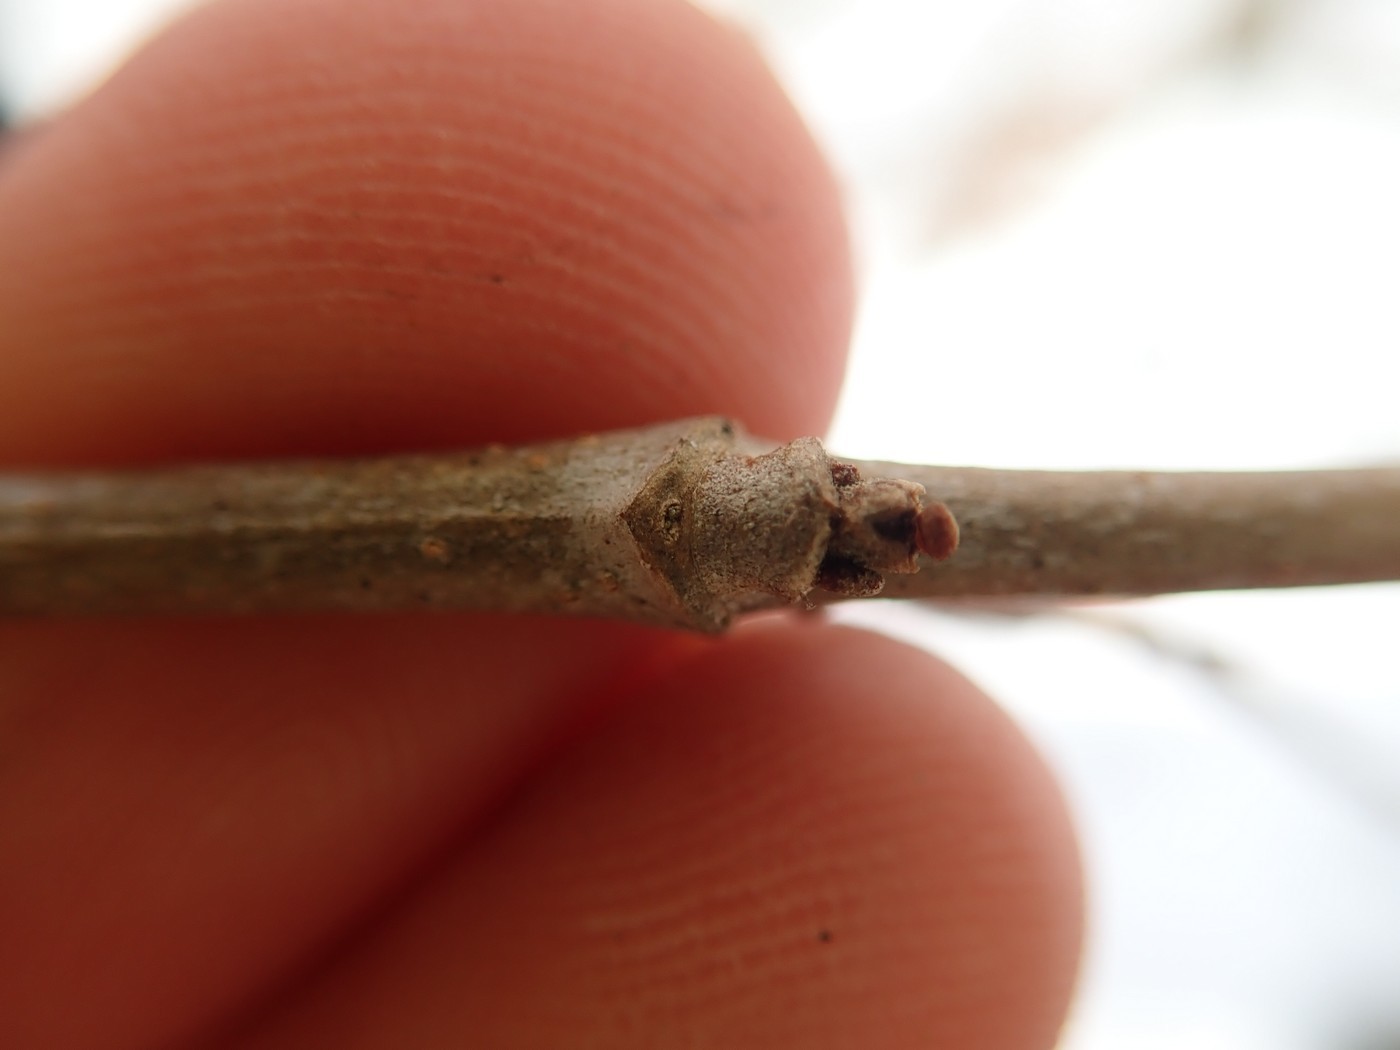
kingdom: Plantae
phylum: Tracheophyta
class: Magnoliopsida
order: Dipsacales
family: Viburnaceae
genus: Viburnum
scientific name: Viburnum cassinoides
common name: Swamp haw
